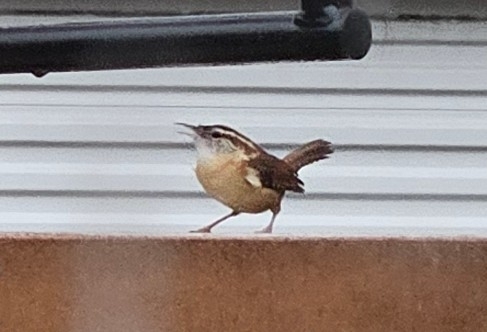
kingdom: Animalia
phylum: Chordata
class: Aves
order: Passeriformes
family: Troglodytidae
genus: Thryothorus
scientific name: Thryothorus ludovicianus
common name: Carolina wren
